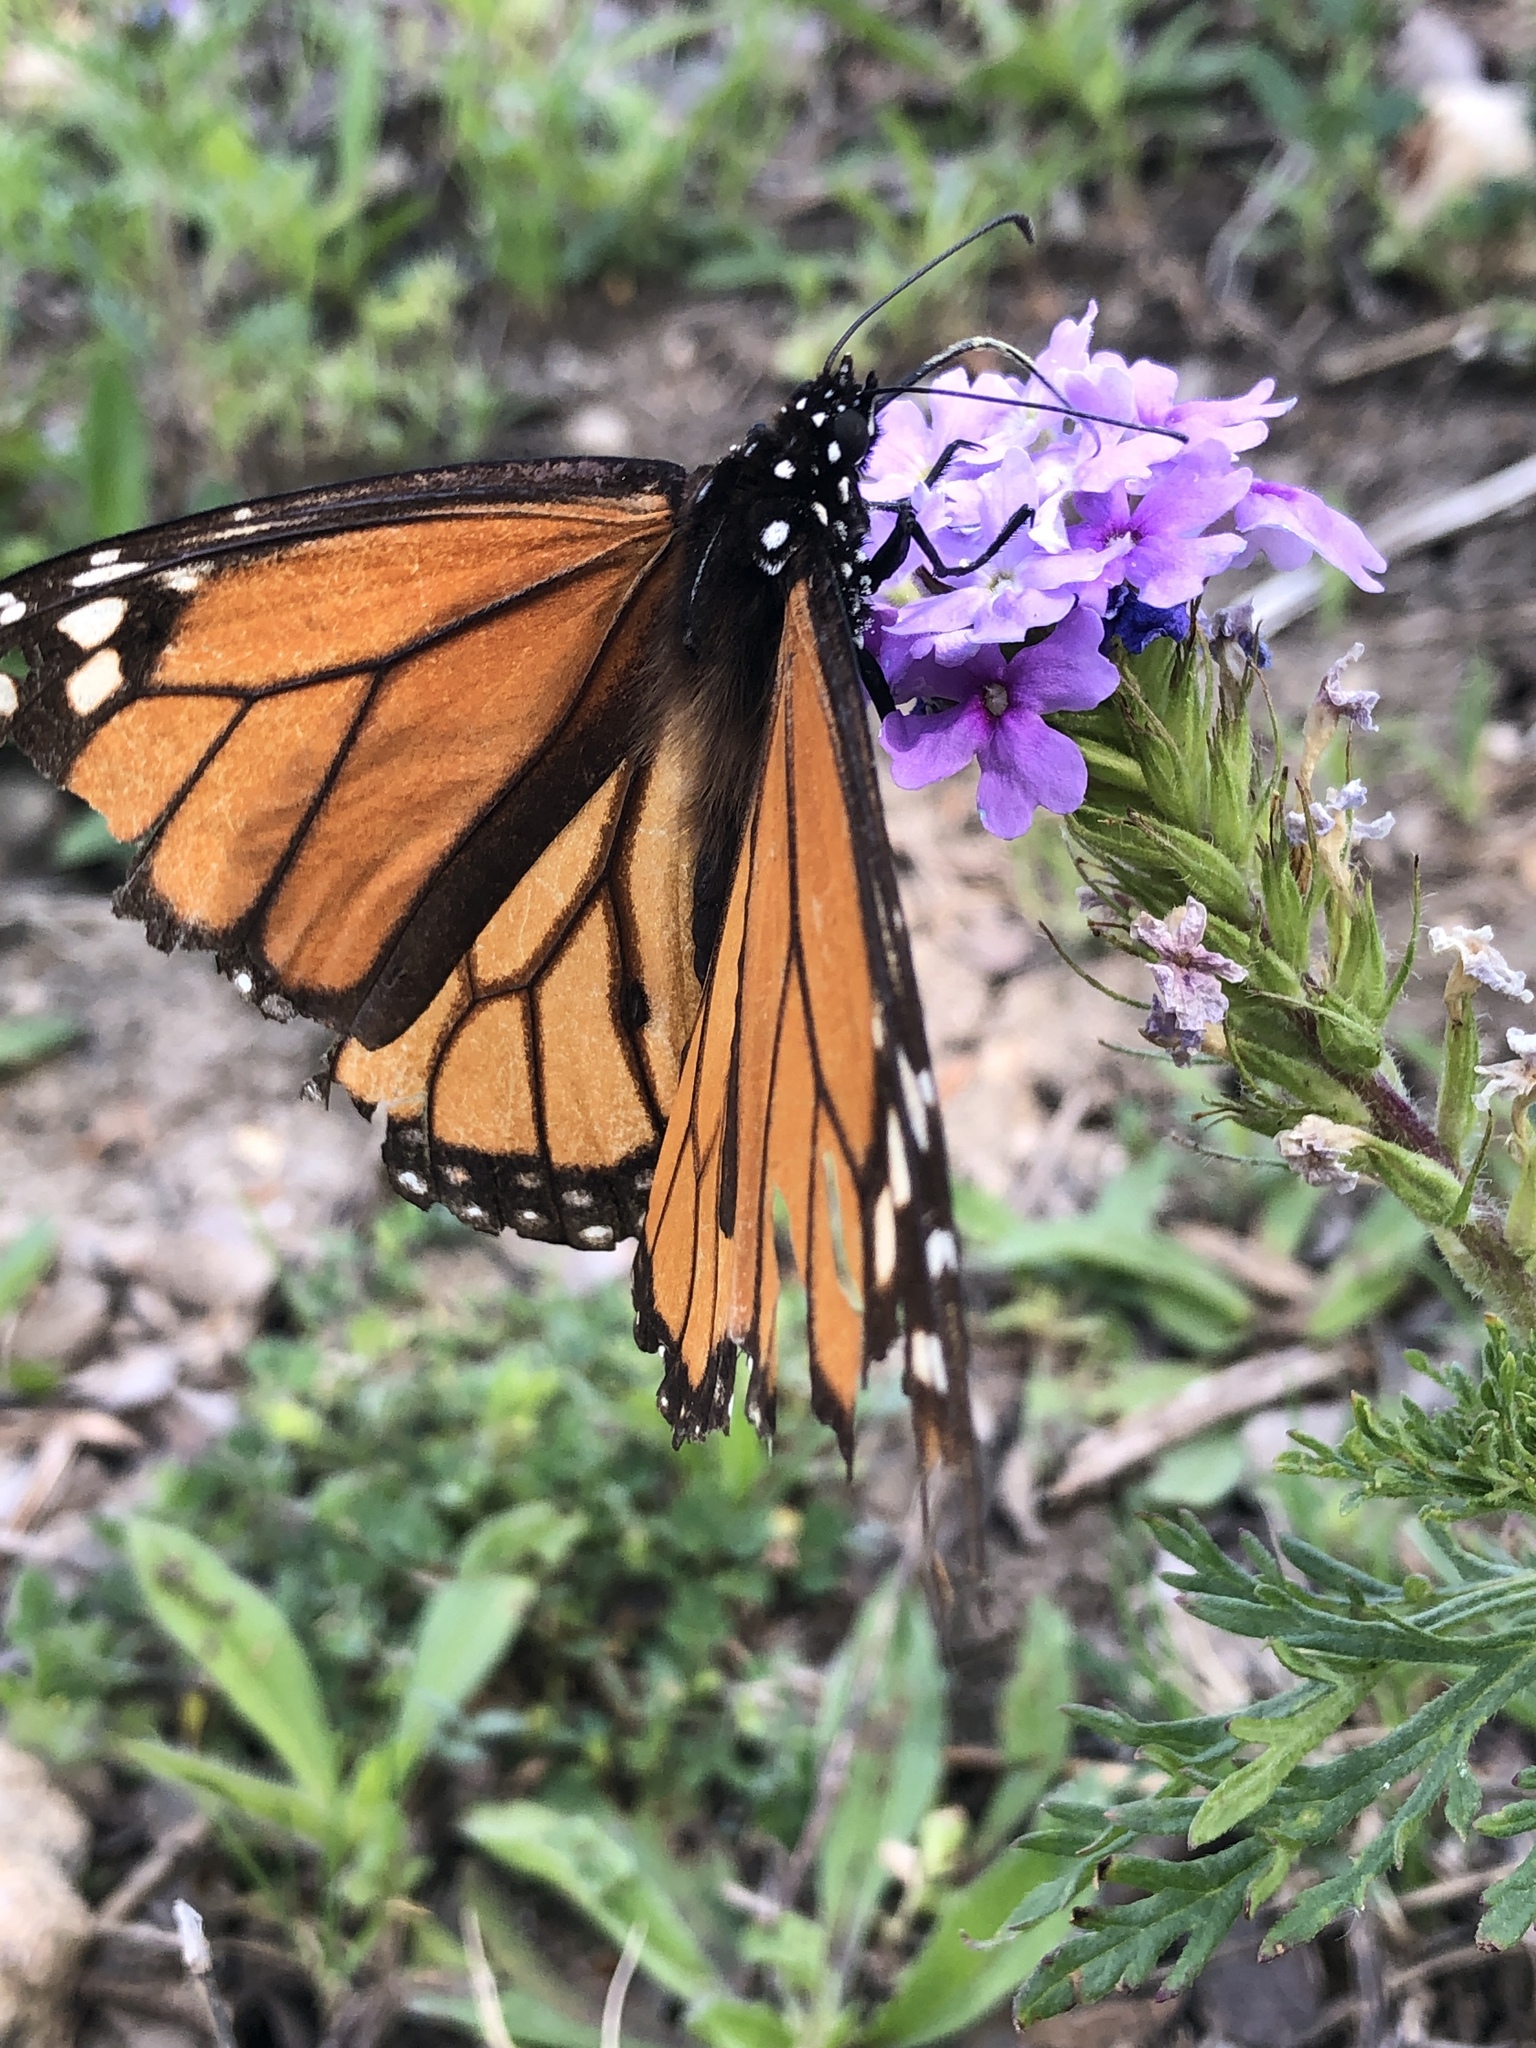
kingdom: Animalia
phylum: Arthropoda
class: Insecta
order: Lepidoptera
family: Nymphalidae
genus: Danaus
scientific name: Danaus plexippus
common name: Monarch
